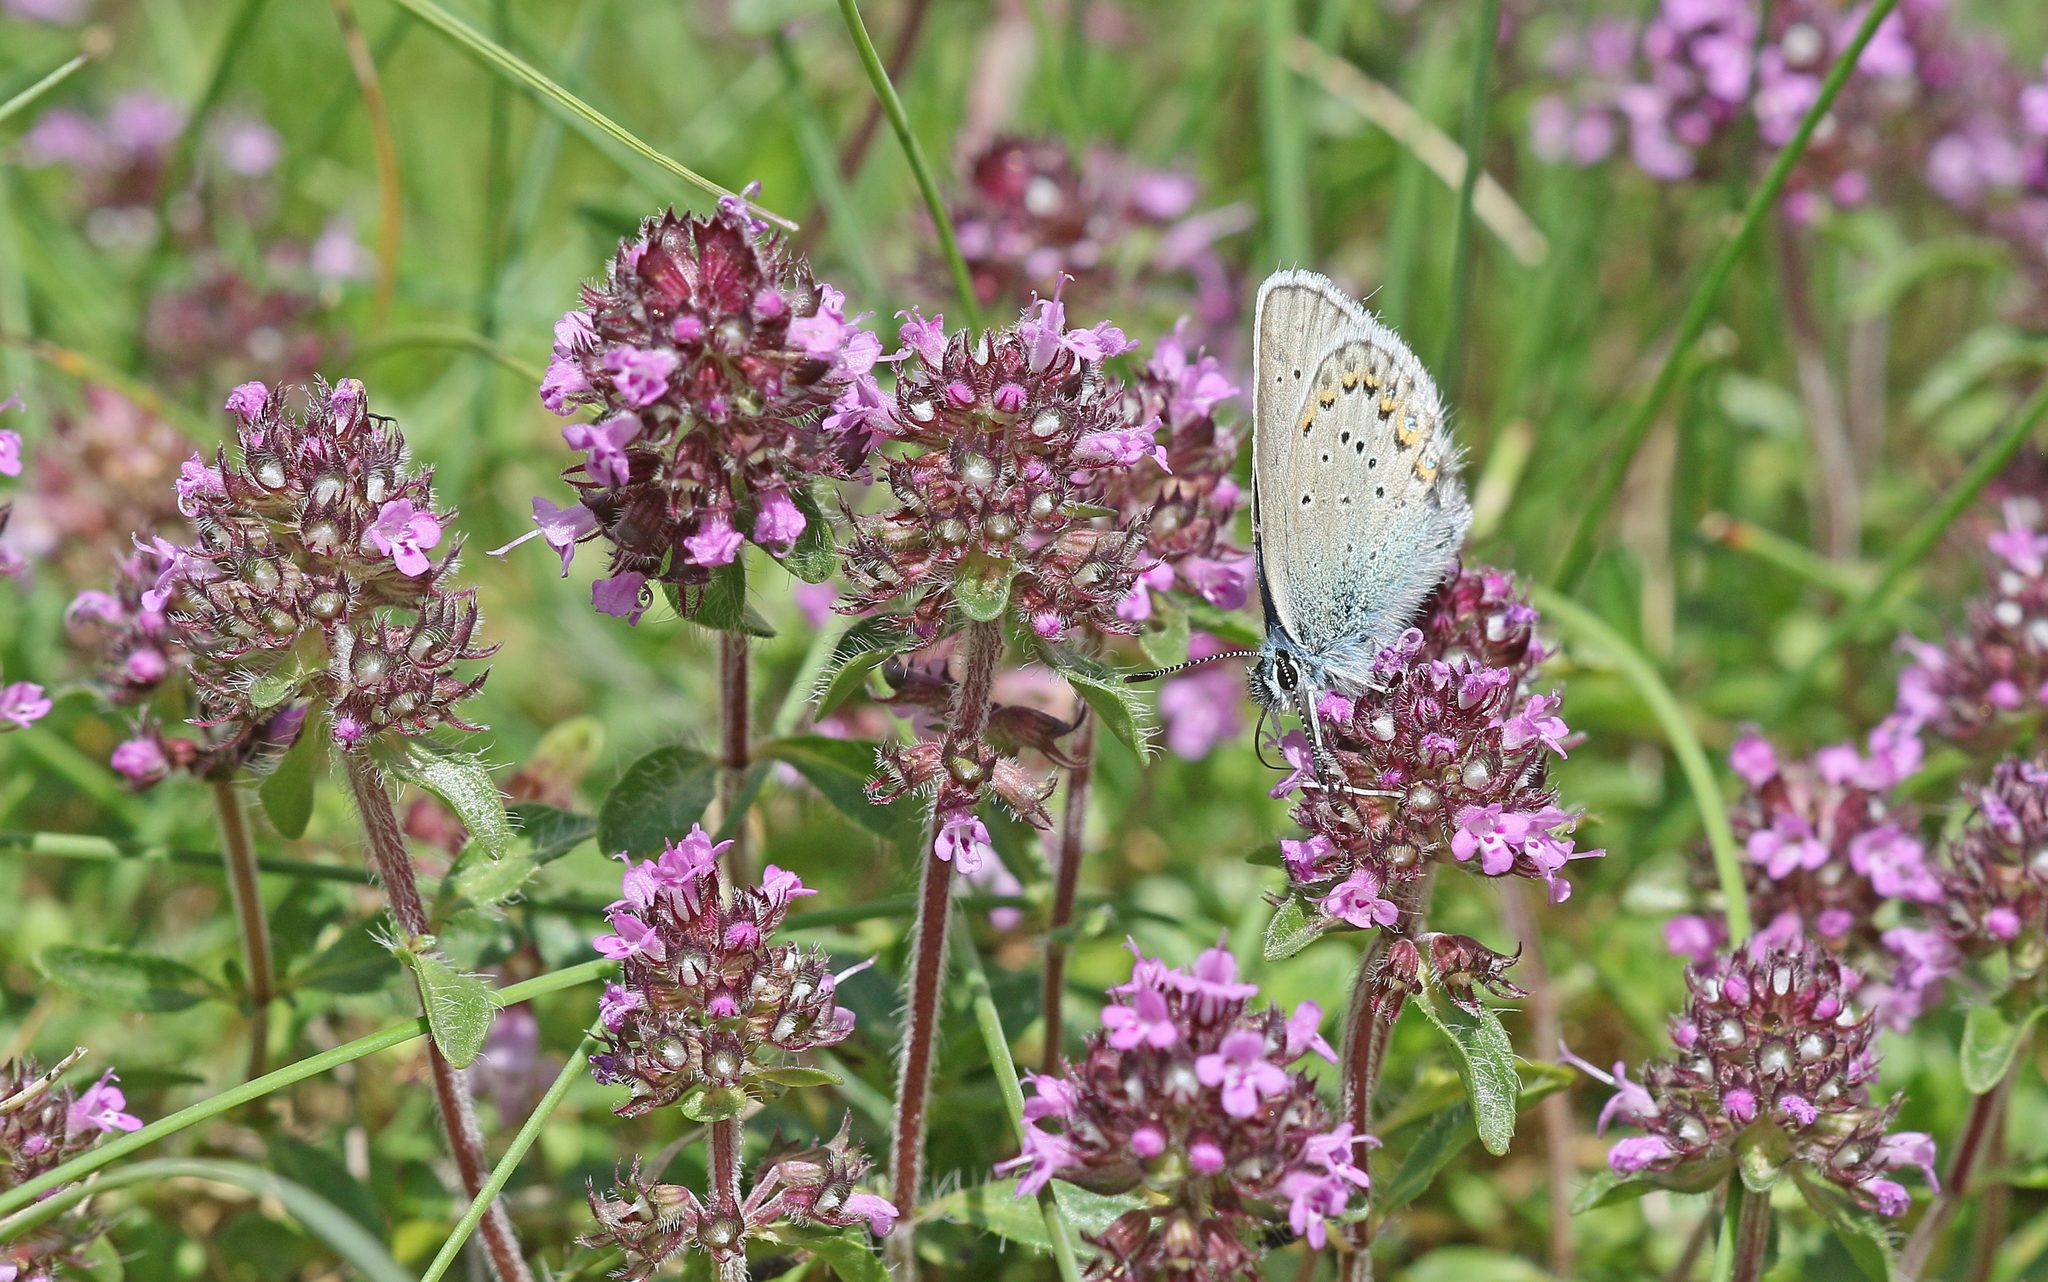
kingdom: Animalia
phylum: Arthropoda
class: Insecta
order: Lepidoptera
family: Lycaenidae
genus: Lycaeides
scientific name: Lycaeides idas
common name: Northern blue
